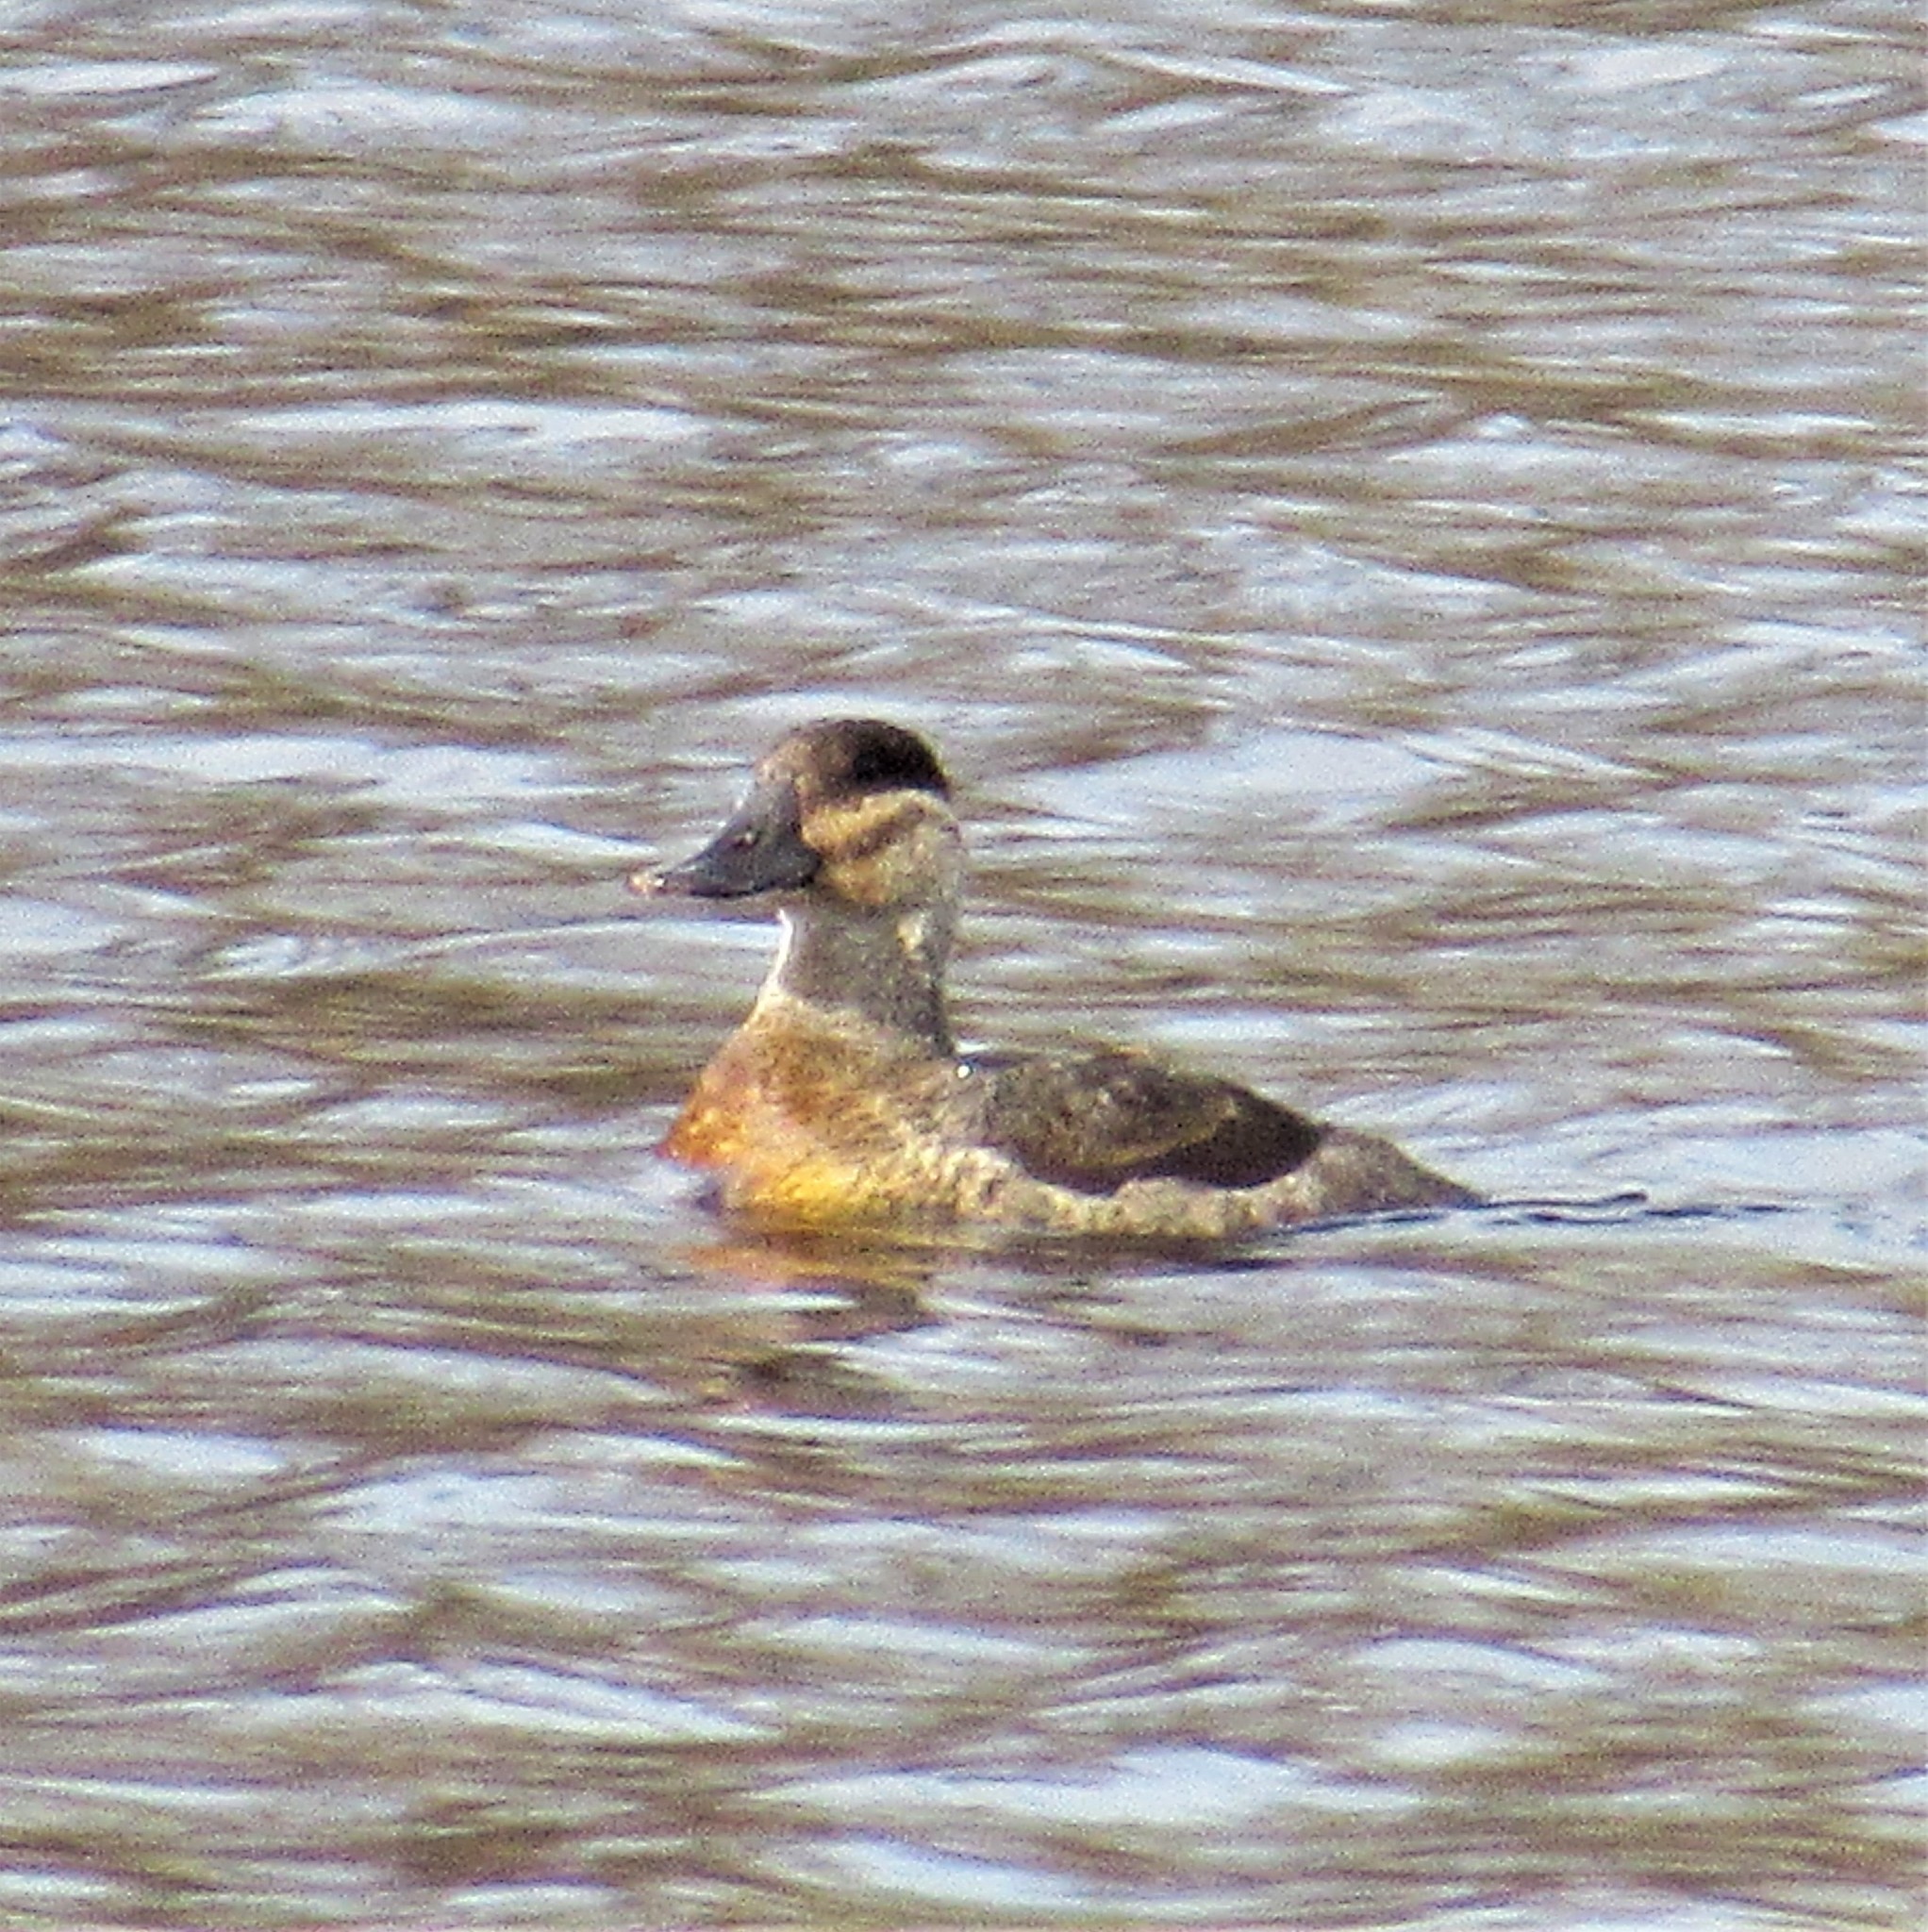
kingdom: Animalia
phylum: Chordata
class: Aves
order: Anseriformes
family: Anatidae
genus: Oxyura
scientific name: Oxyura jamaicensis
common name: Ruddy duck
